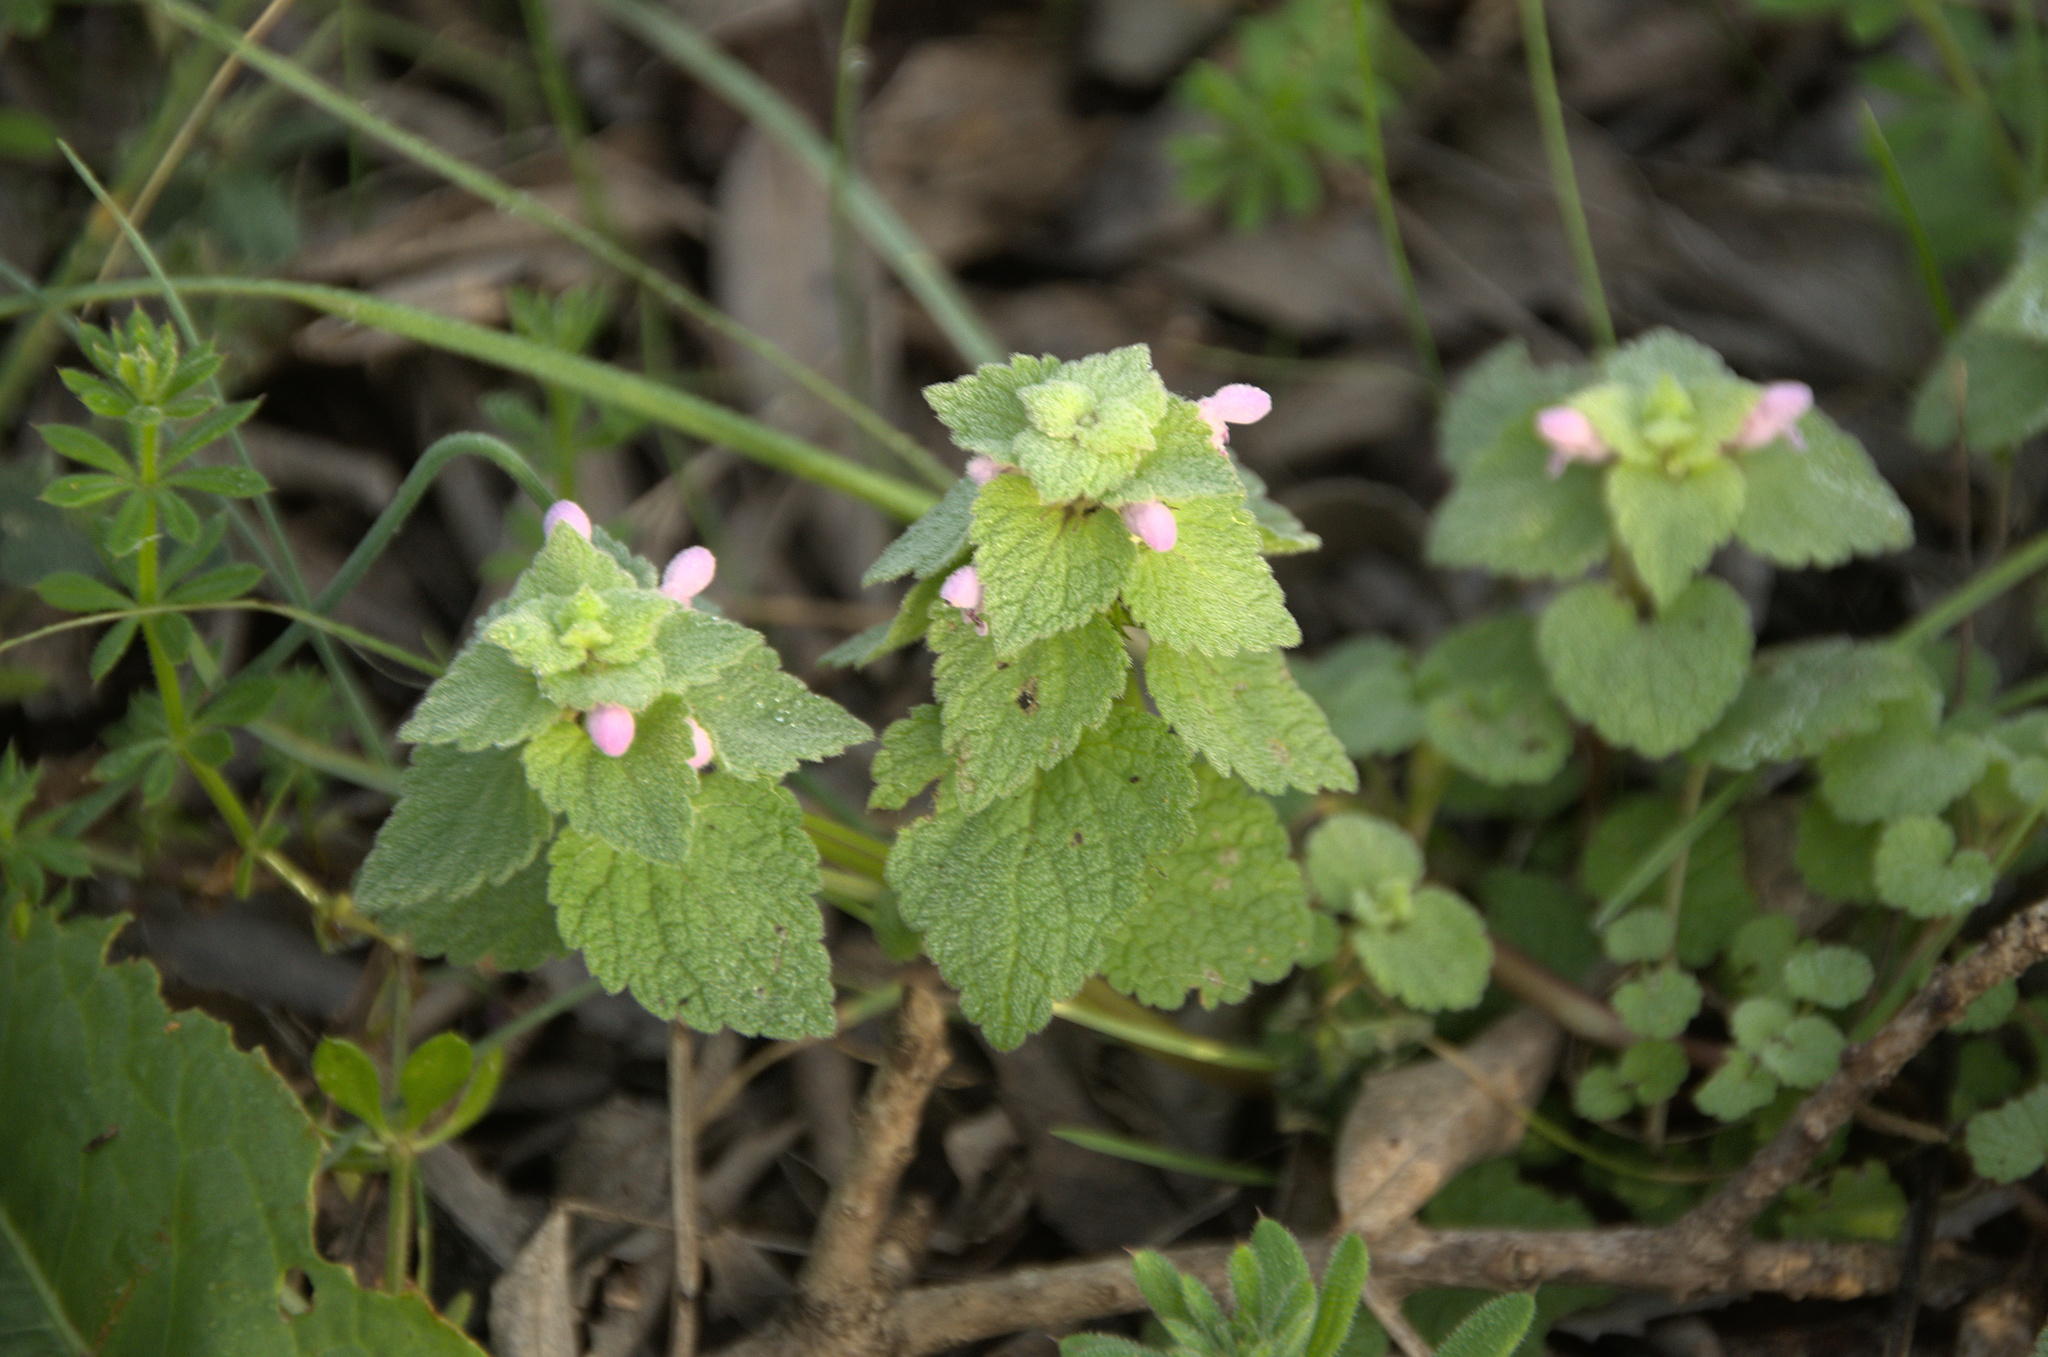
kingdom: Plantae
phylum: Tracheophyta
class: Magnoliopsida
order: Lamiales
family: Lamiaceae
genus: Lamium
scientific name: Lamium purpureum
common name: Red dead-nettle
